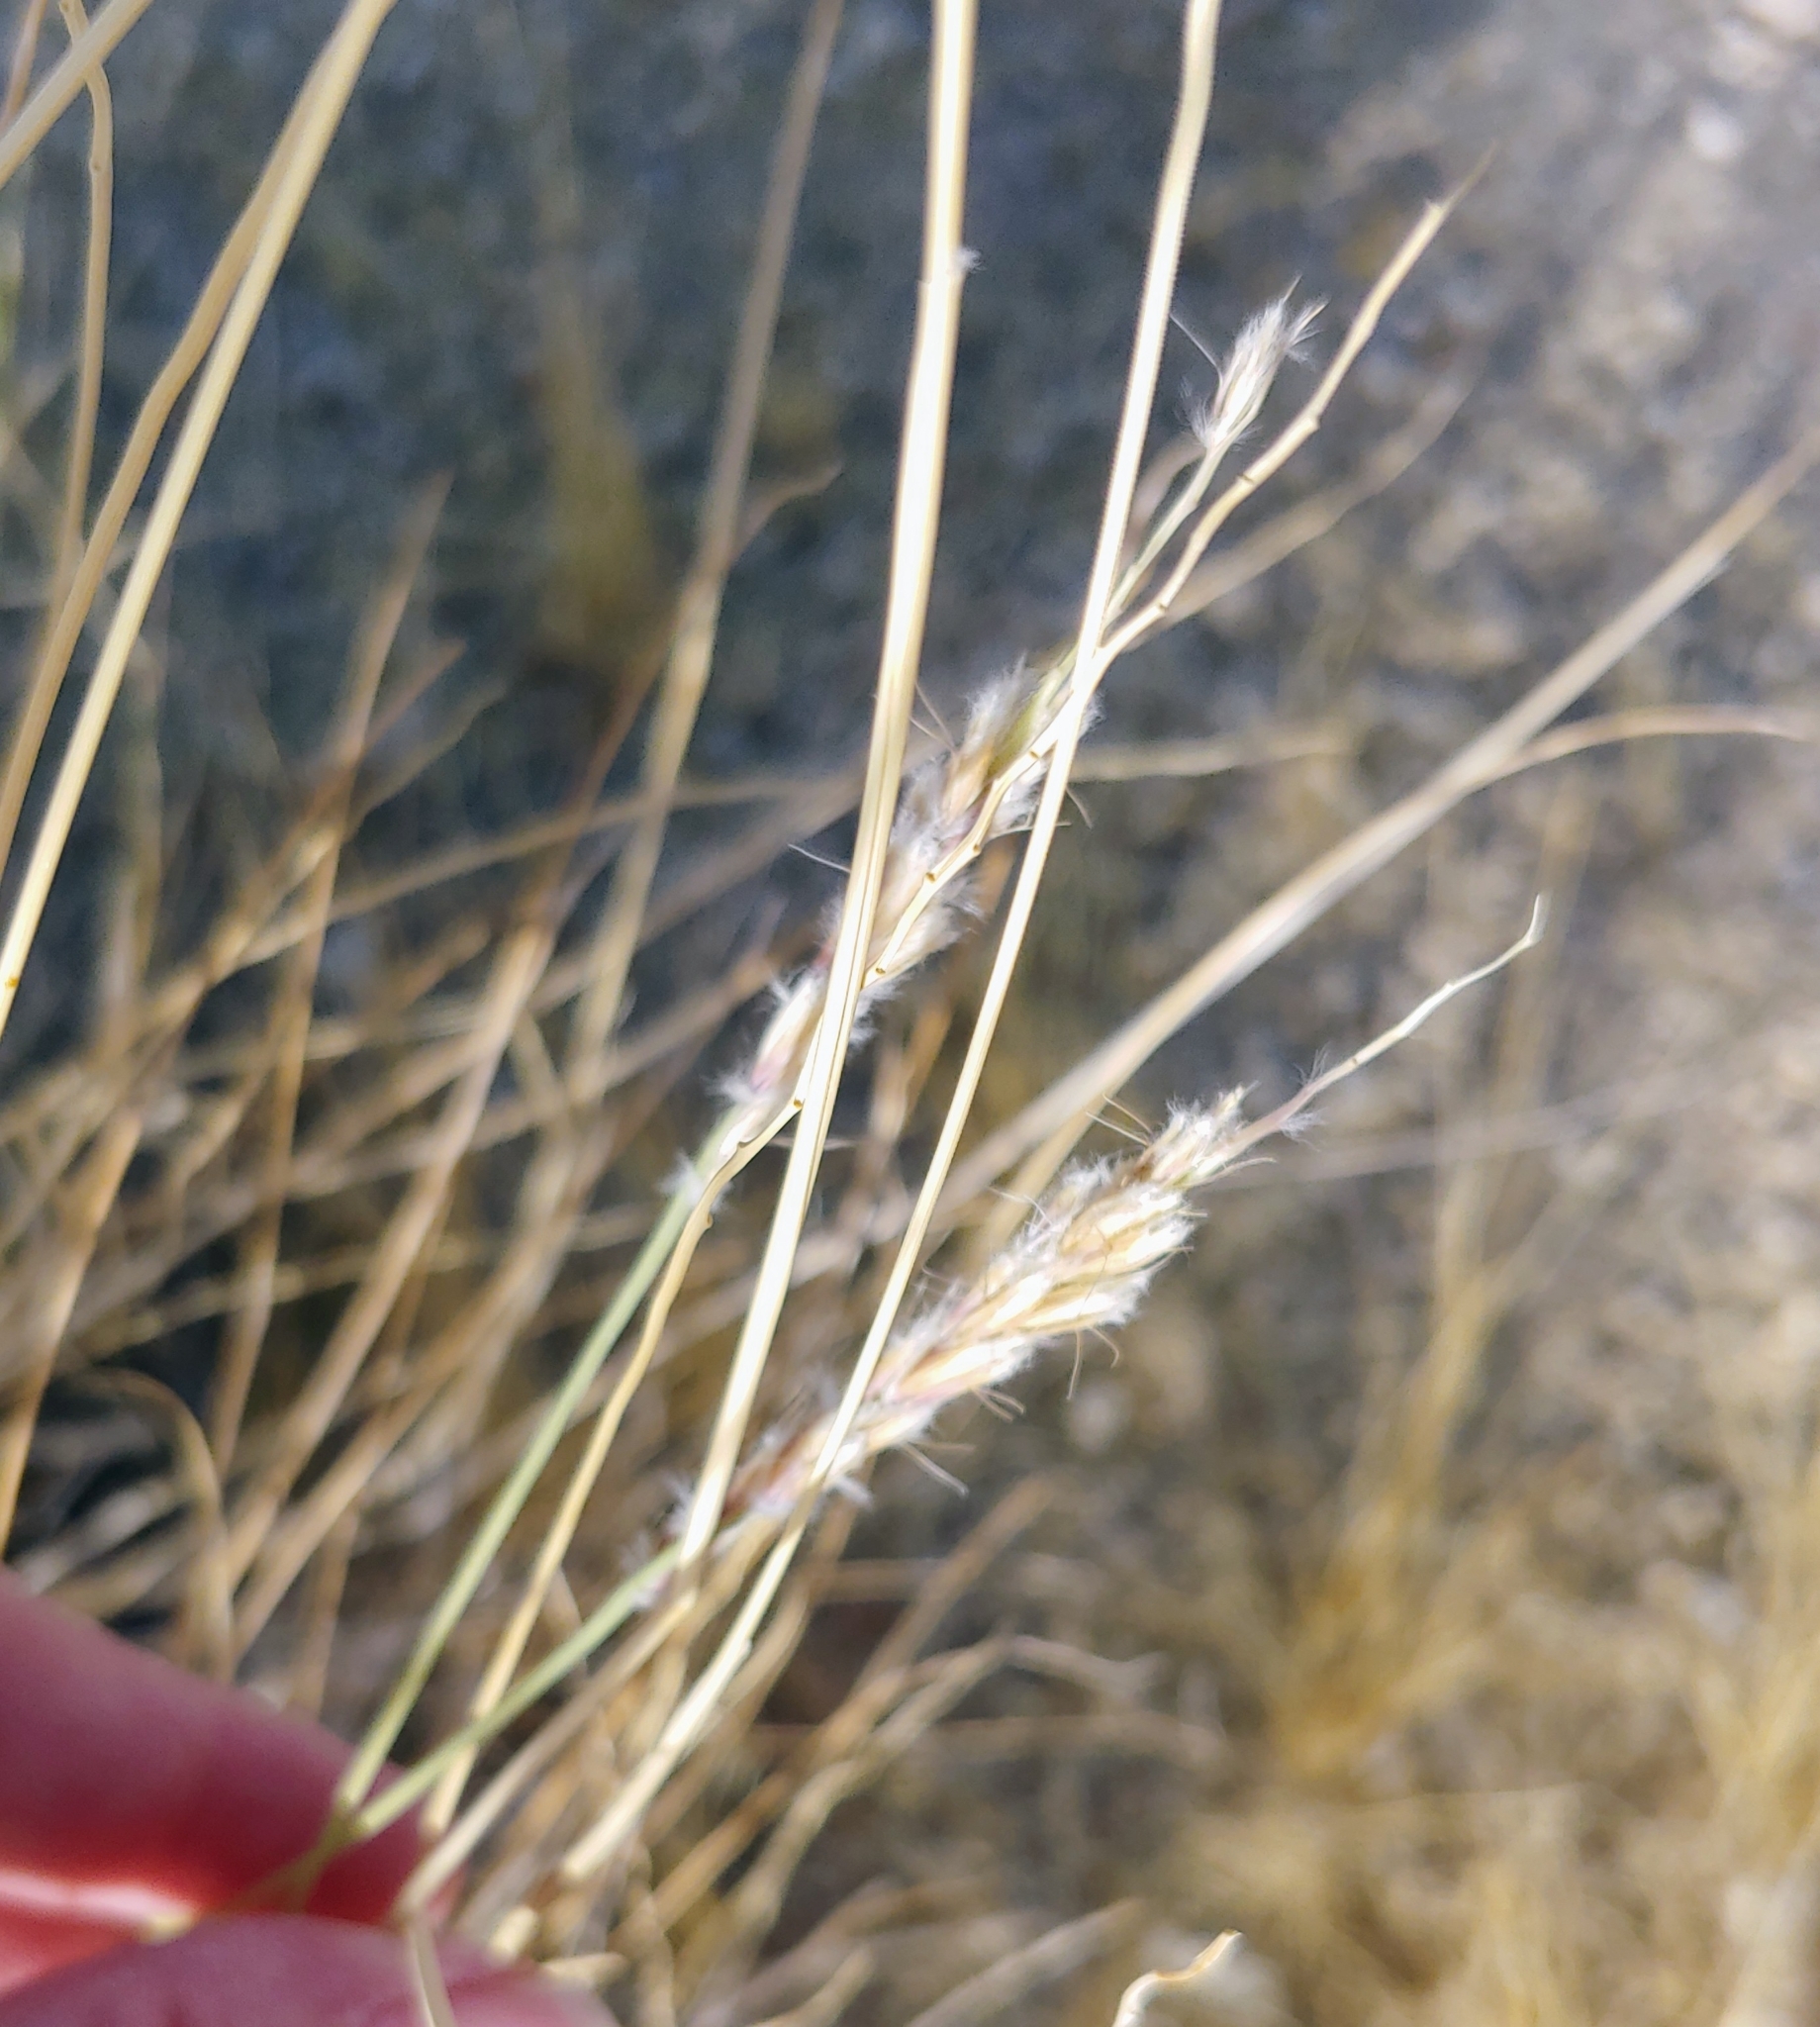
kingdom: Plantae
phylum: Tracheophyta
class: Liliopsida
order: Poales
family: Poaceae
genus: Hilaria
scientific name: Hilaria rigida
